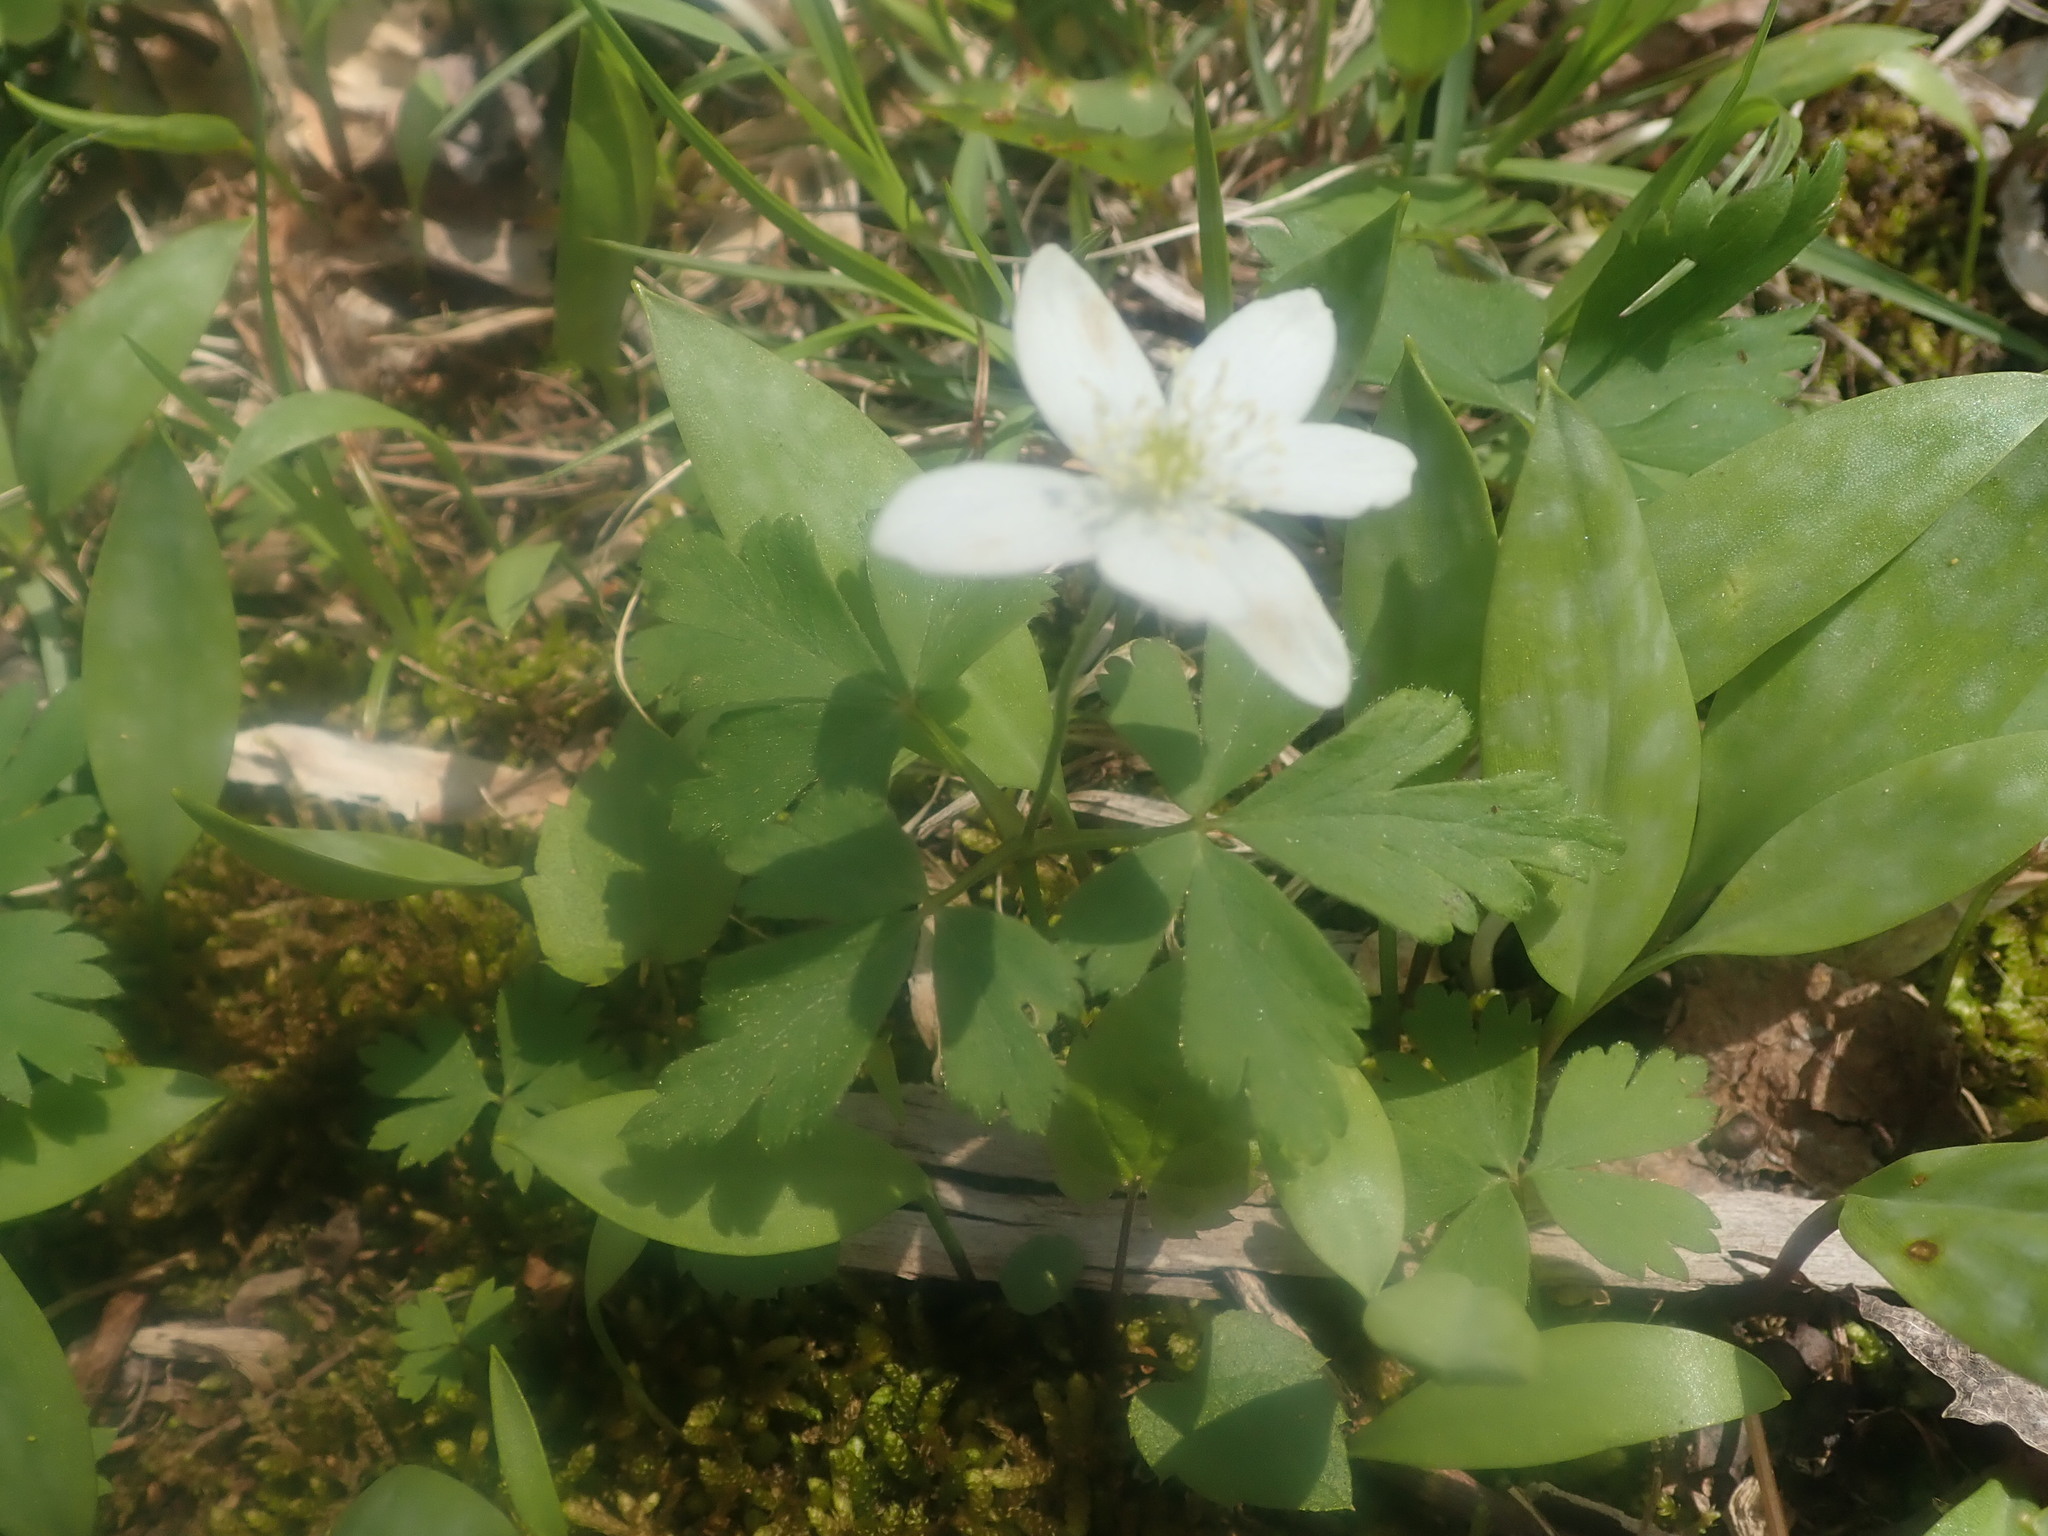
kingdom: Plantae
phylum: Tracheophyta
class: Magnoliopsida
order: Ranunculales
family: Ranunculaceae
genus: Anemone
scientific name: Anemone quinquefolia
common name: Wood anemone
